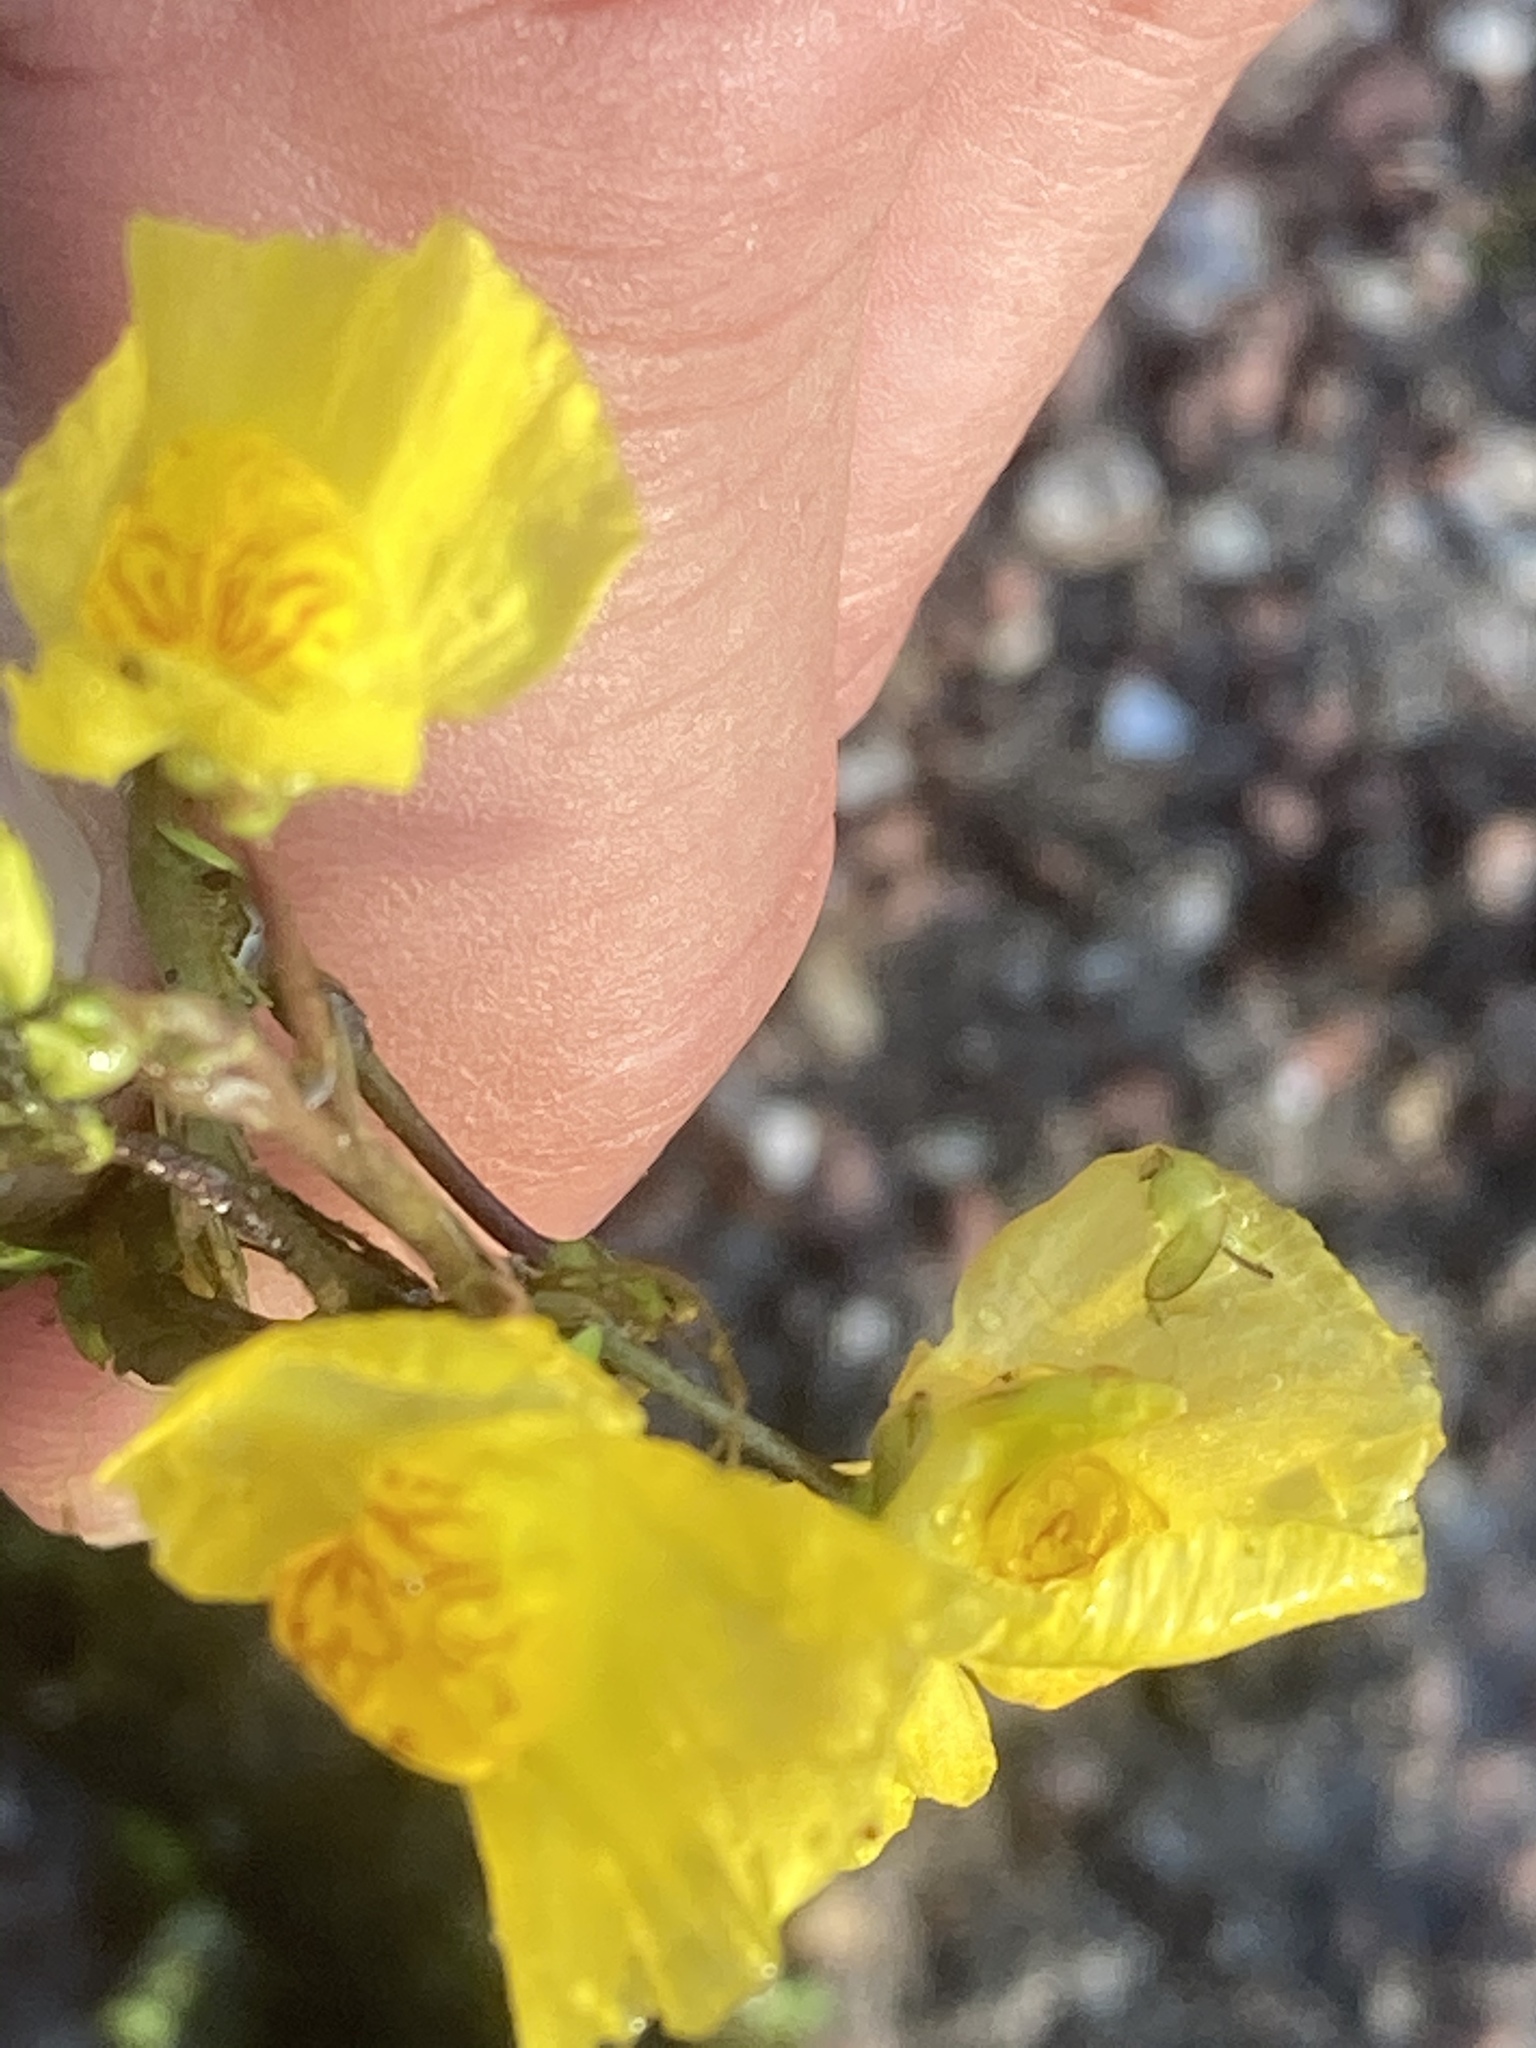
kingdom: Plantae
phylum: Tracheophyta
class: Magnoliopsida
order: Lamiales
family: Lentibulariaceae
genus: Utricularia
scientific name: Utricularia australis
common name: Bladderwort
